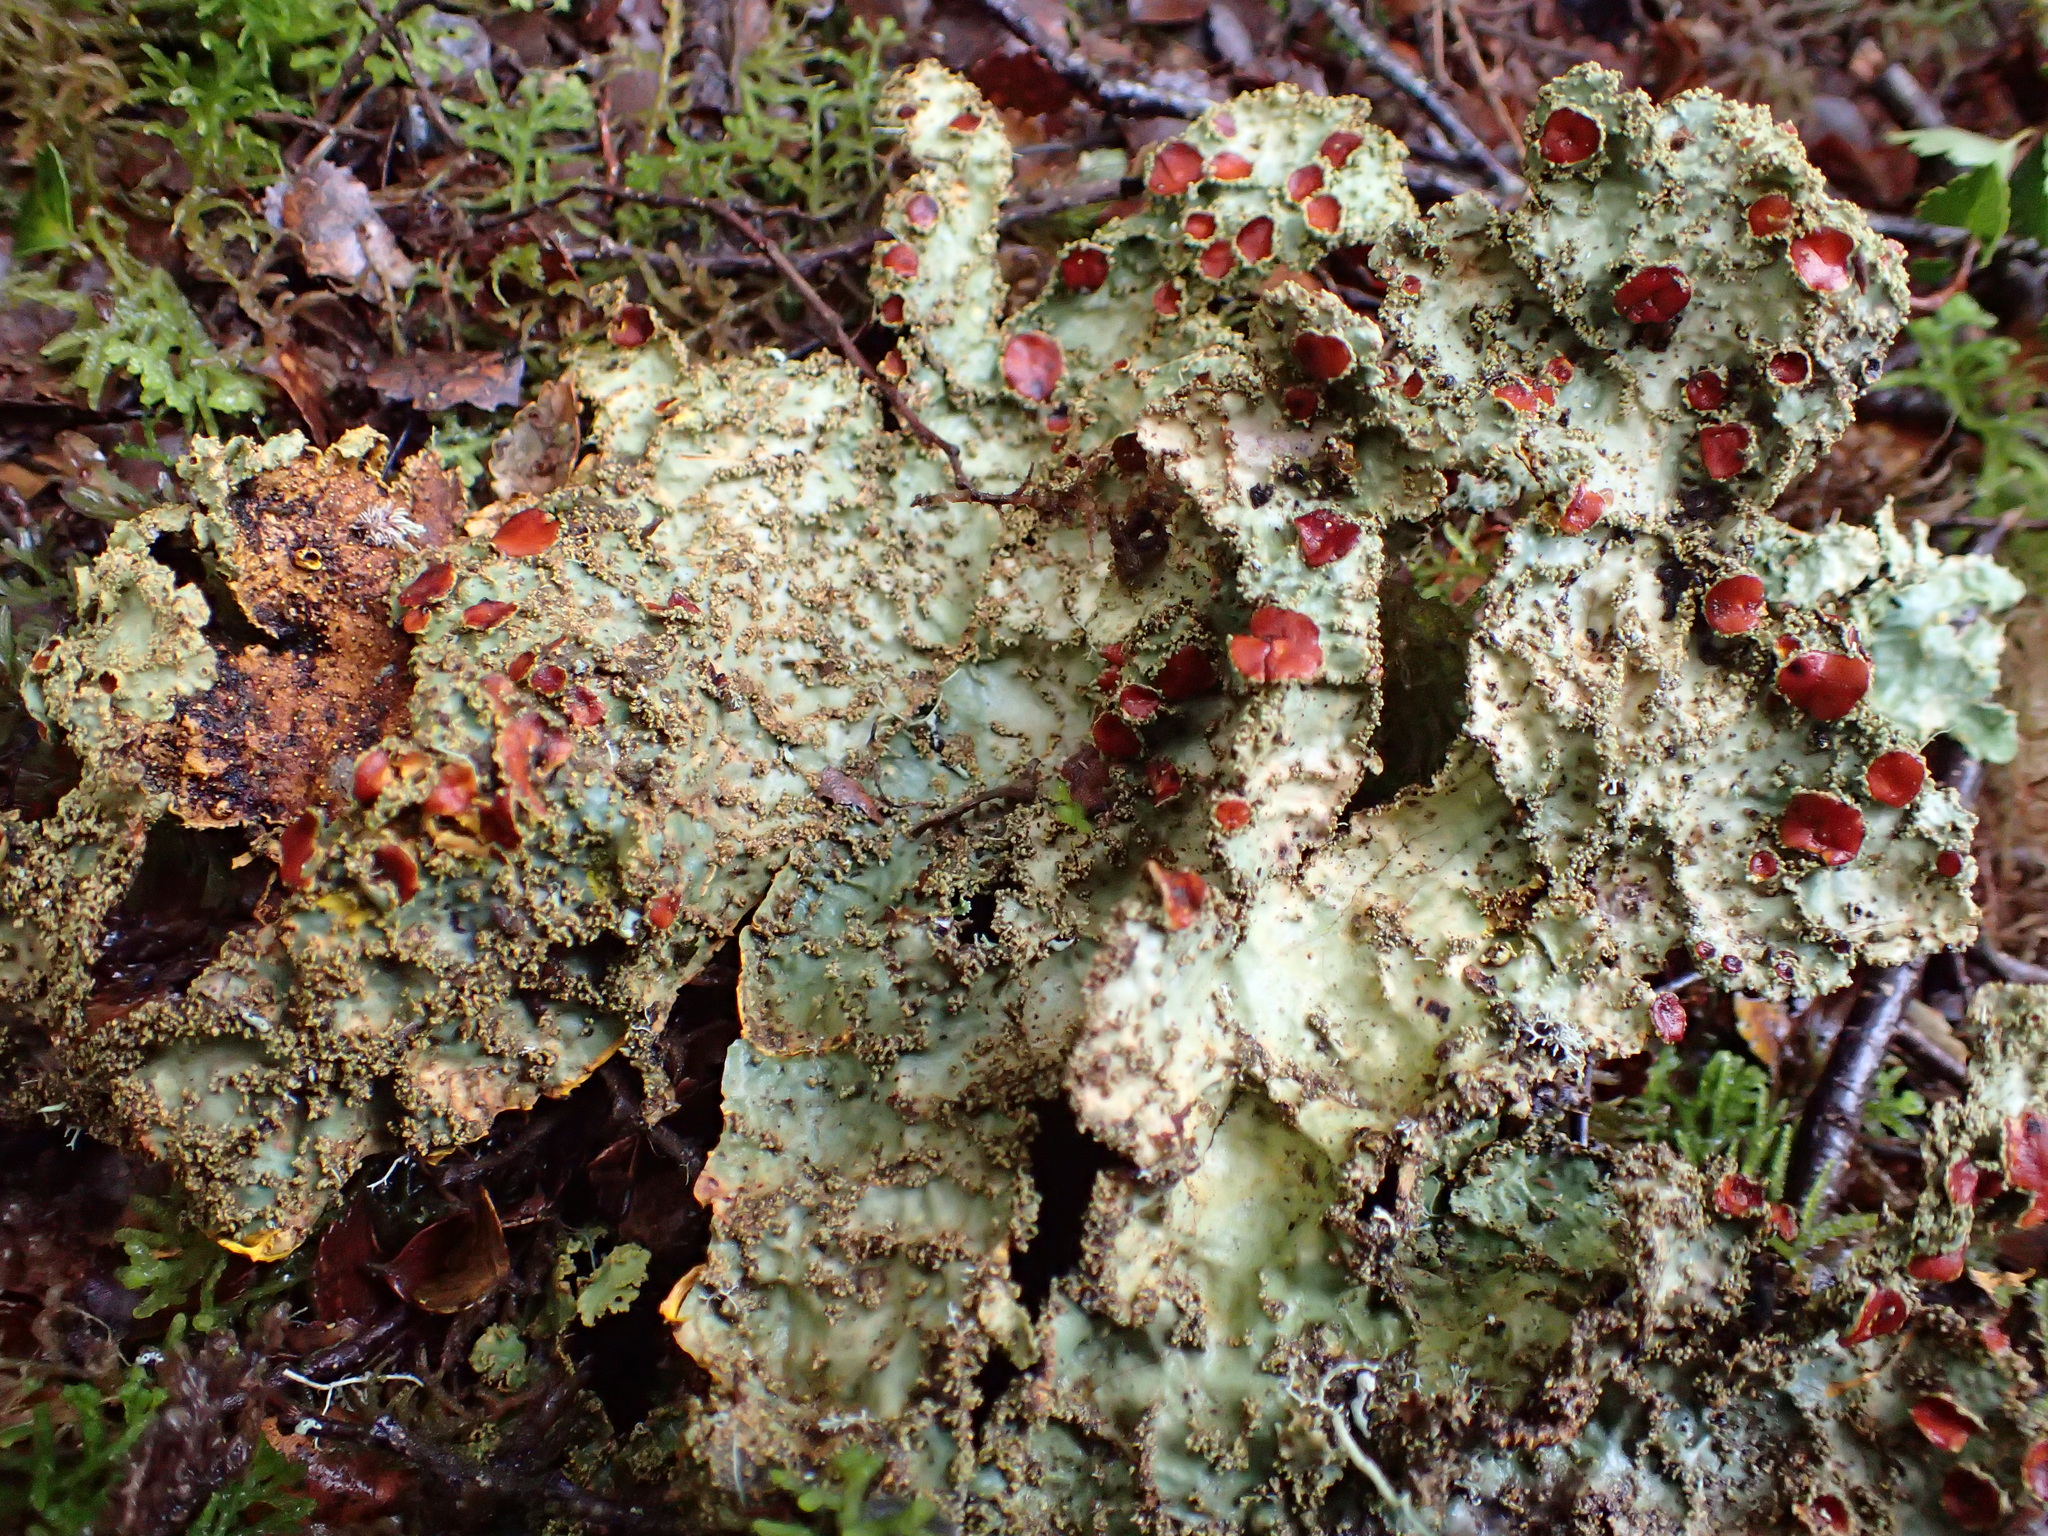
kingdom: Fungi
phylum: Ascomycota
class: Lecanoromycetes
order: Peltigerales
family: Lobariaceae
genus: Yarrumia
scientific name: Yarrumia colensoi
